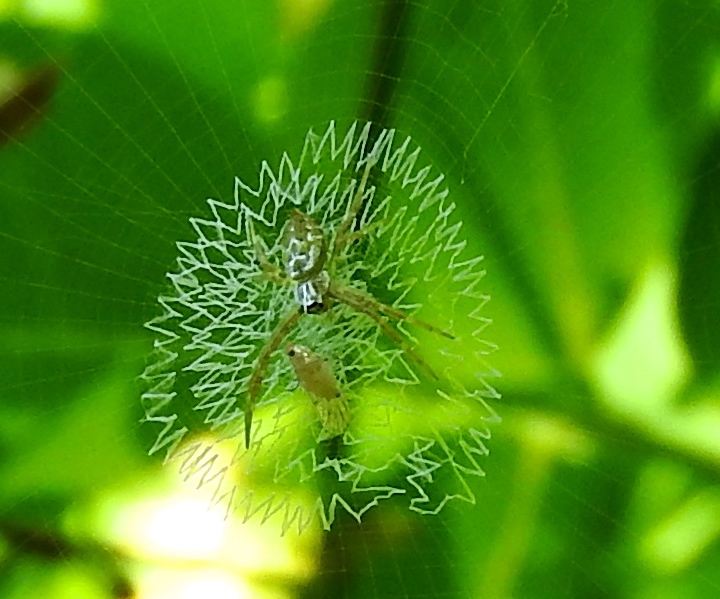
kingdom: Animalia
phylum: Arthropoda
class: Arachnida
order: Araneae
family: Araneidae
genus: Argiope
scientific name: Argiope
